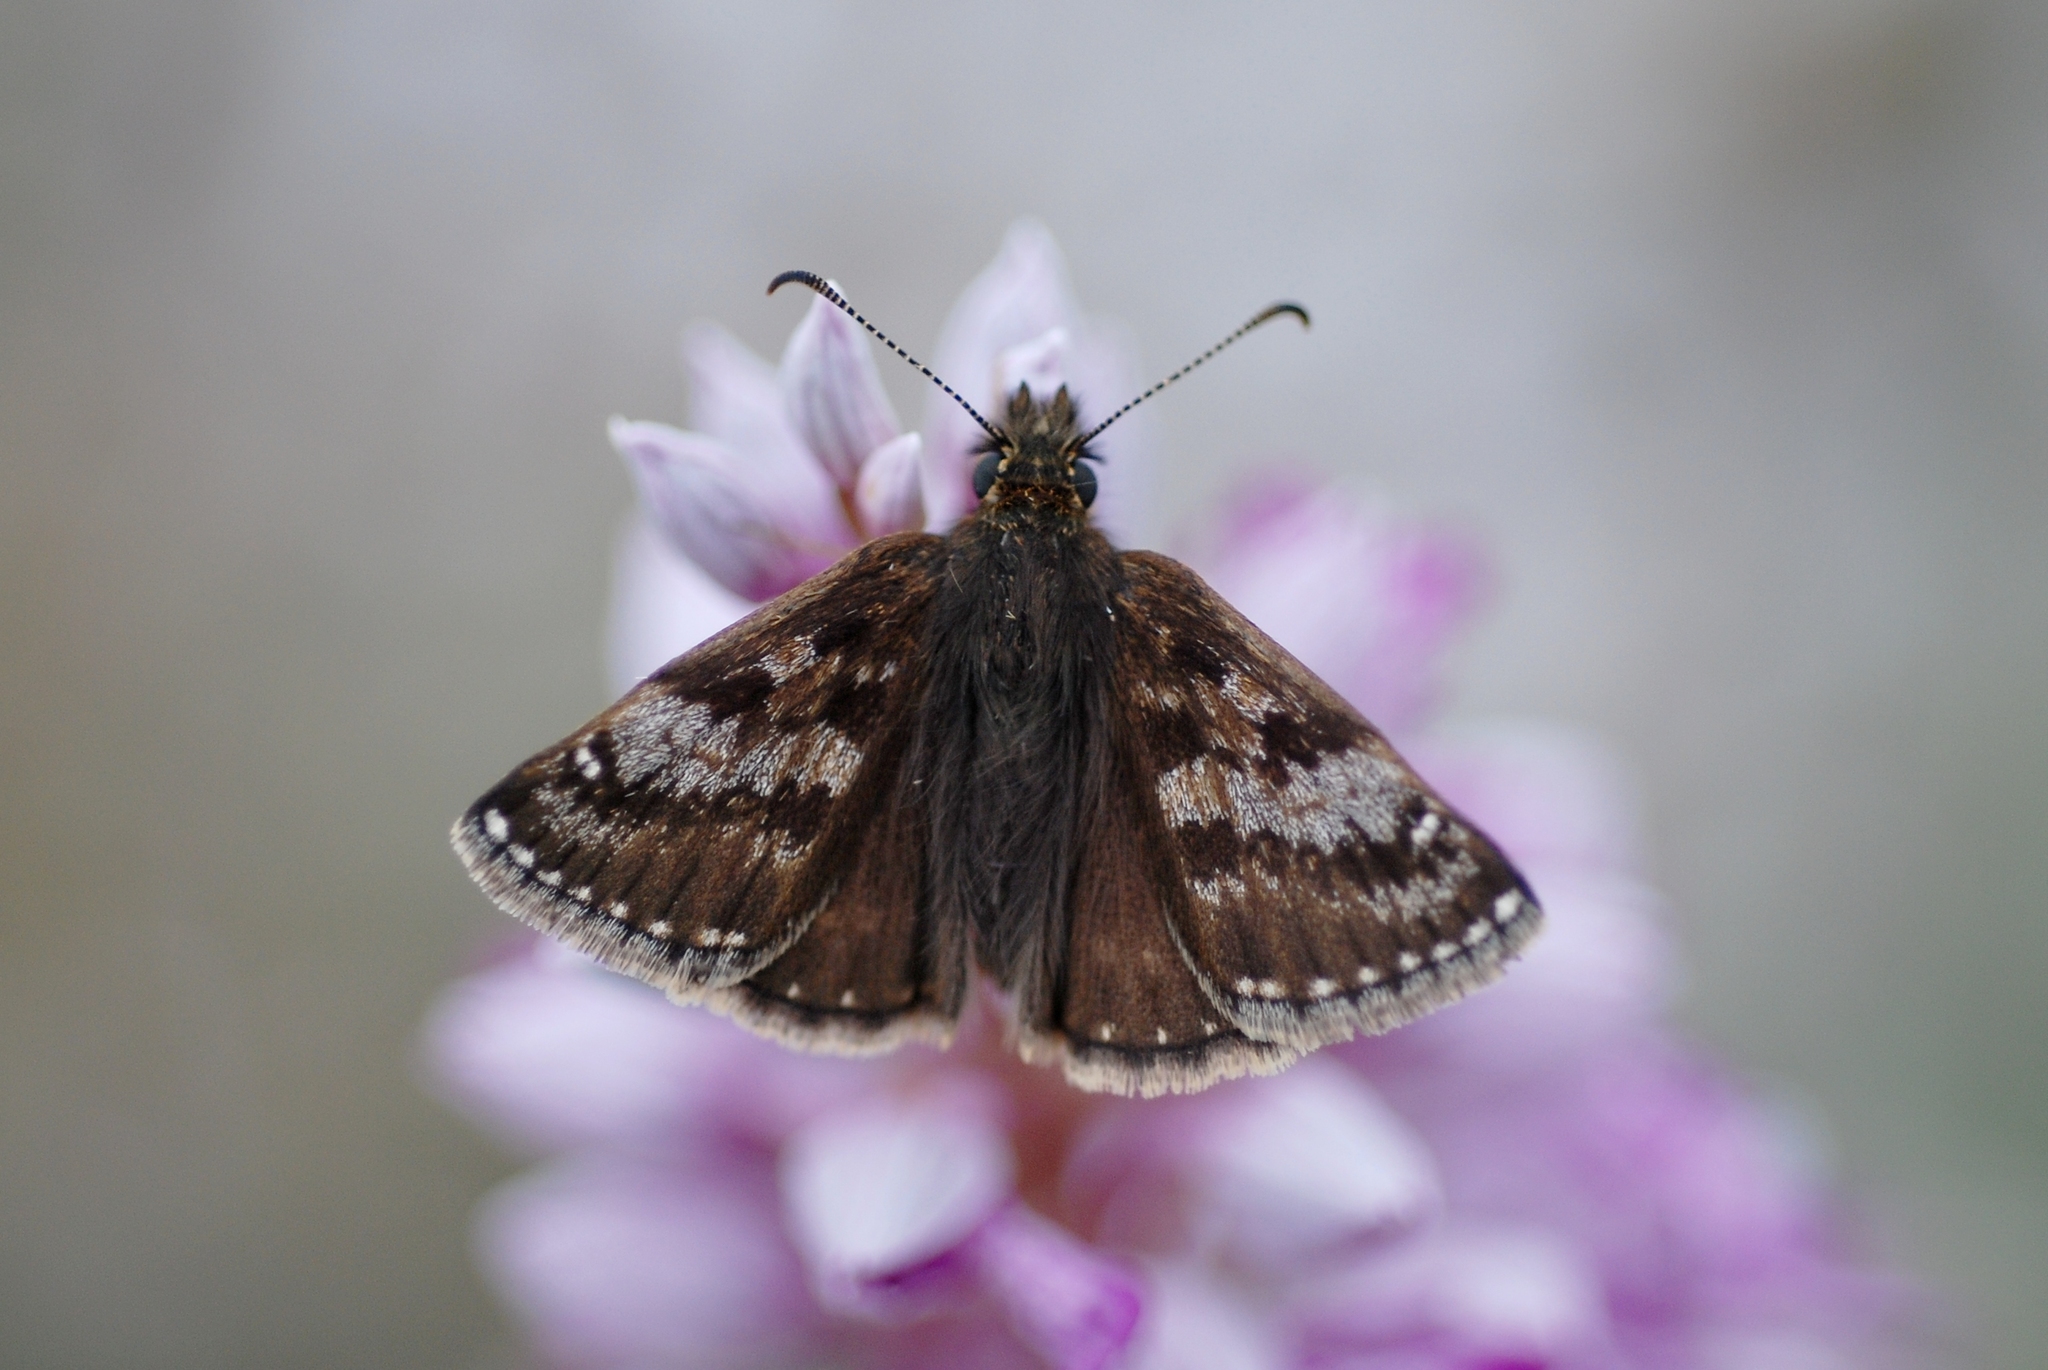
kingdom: Animalia
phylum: Arthropoda
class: Insecta
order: Lepidoptera
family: Hesperiidae
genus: Erynnis
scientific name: Erynnis tages
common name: Dingy skipper
